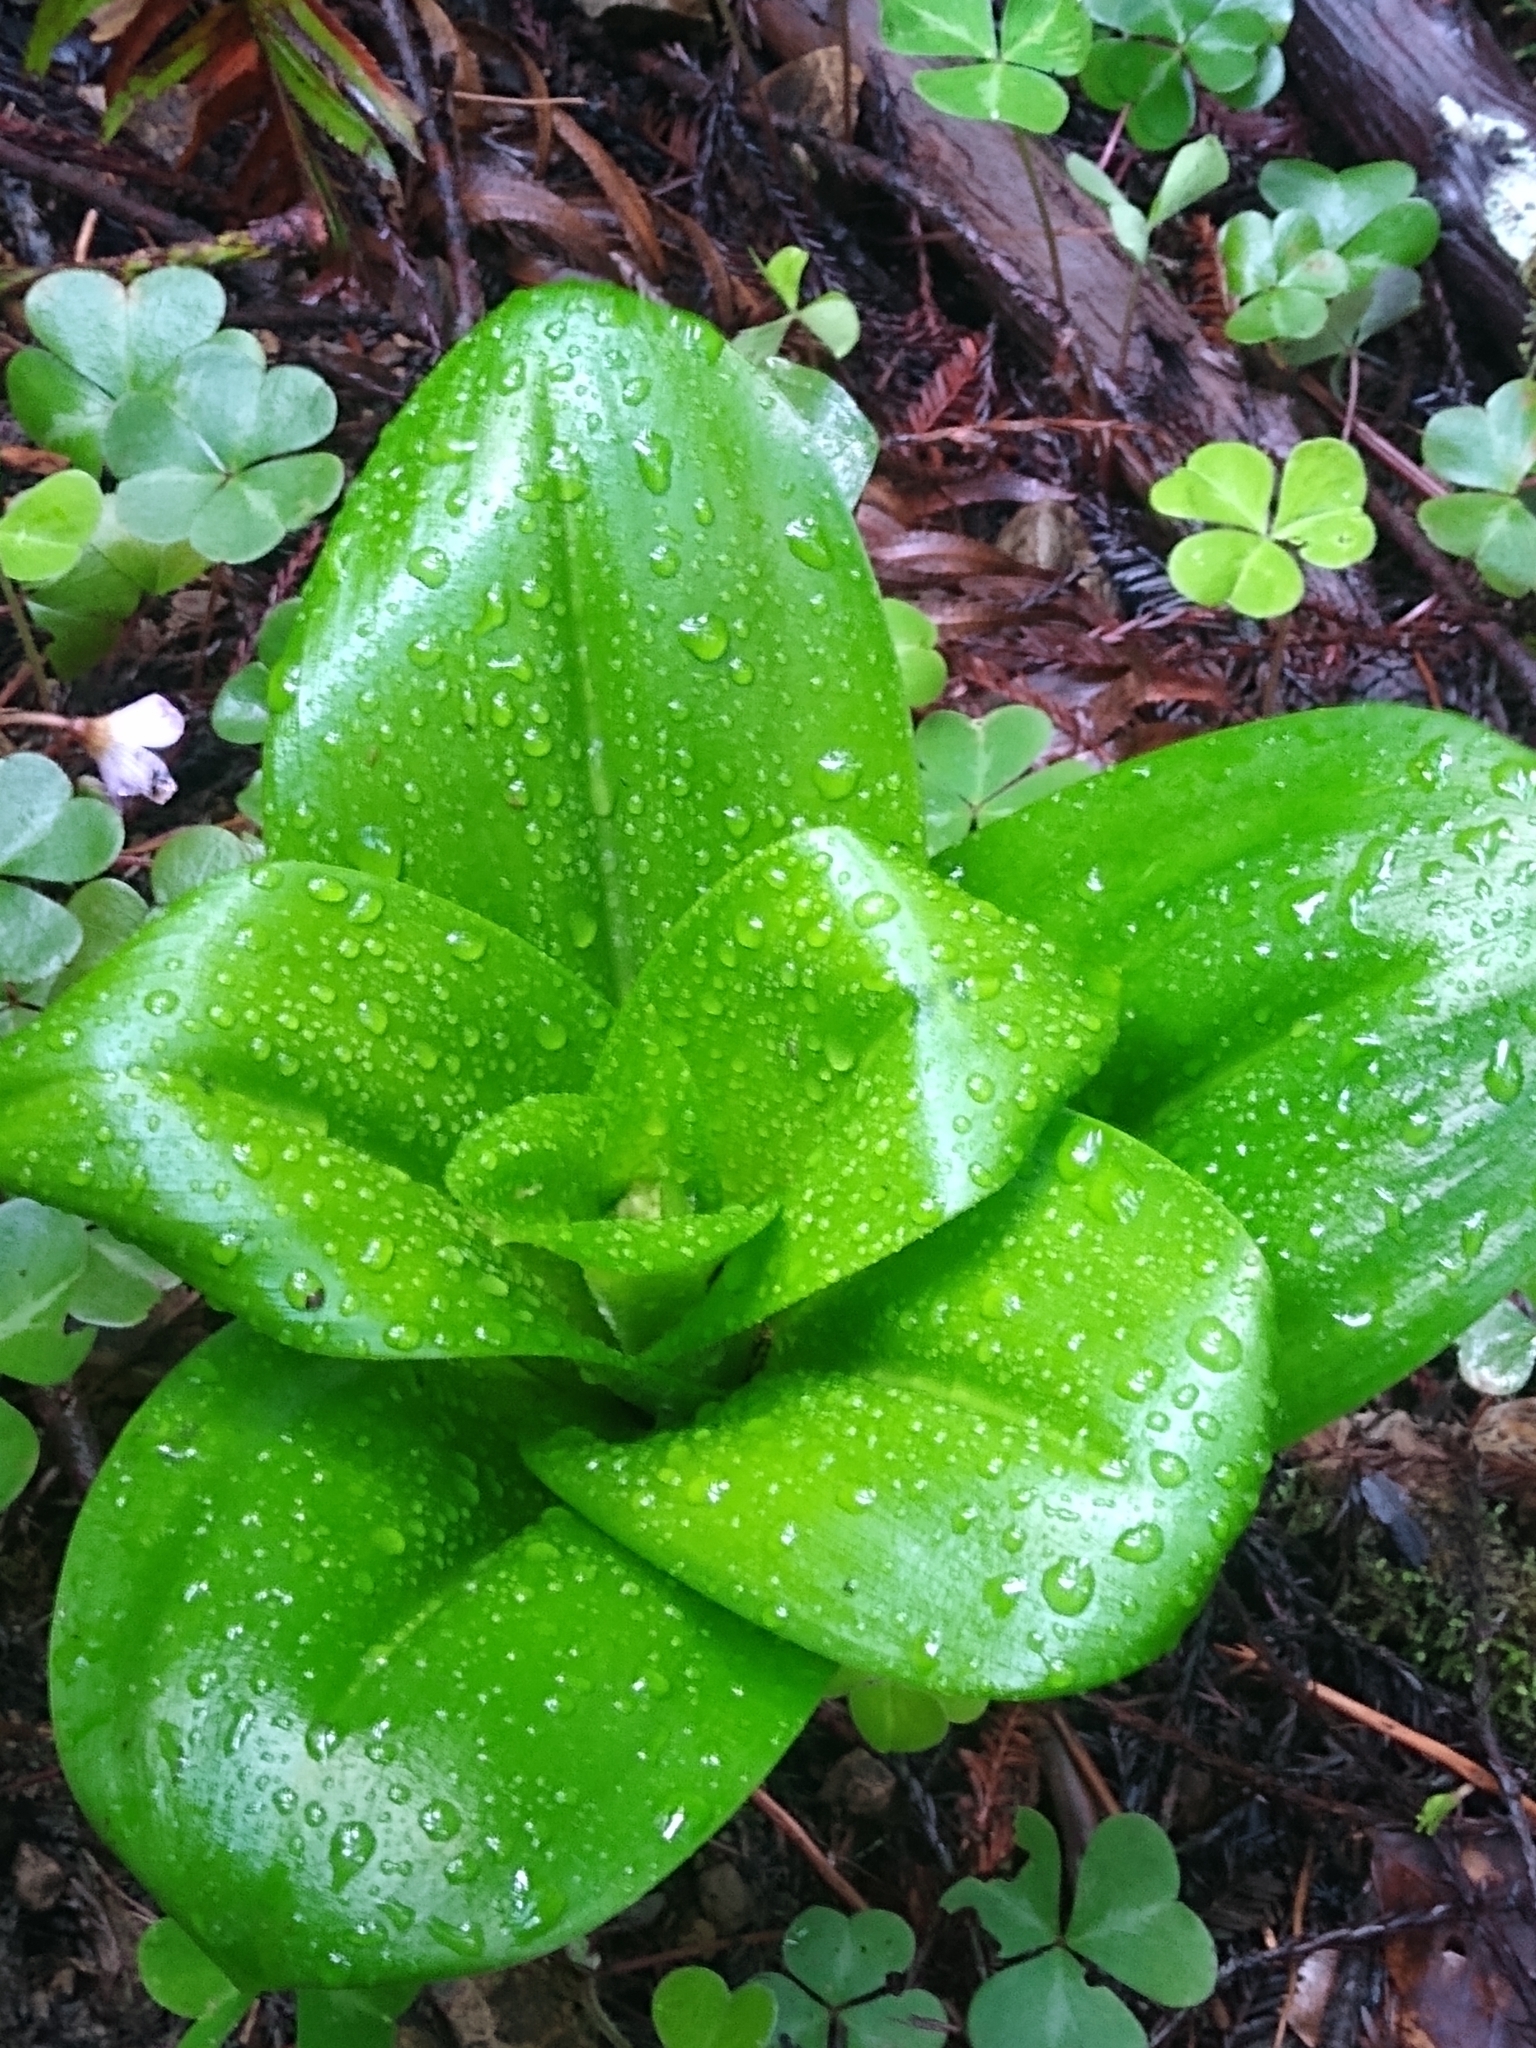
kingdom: Plantae
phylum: Tracheophyta
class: Liliopsida
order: Liliales
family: Liliaceae
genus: Clintonia
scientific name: Clintonia andrewsiana
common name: Red clintonia
